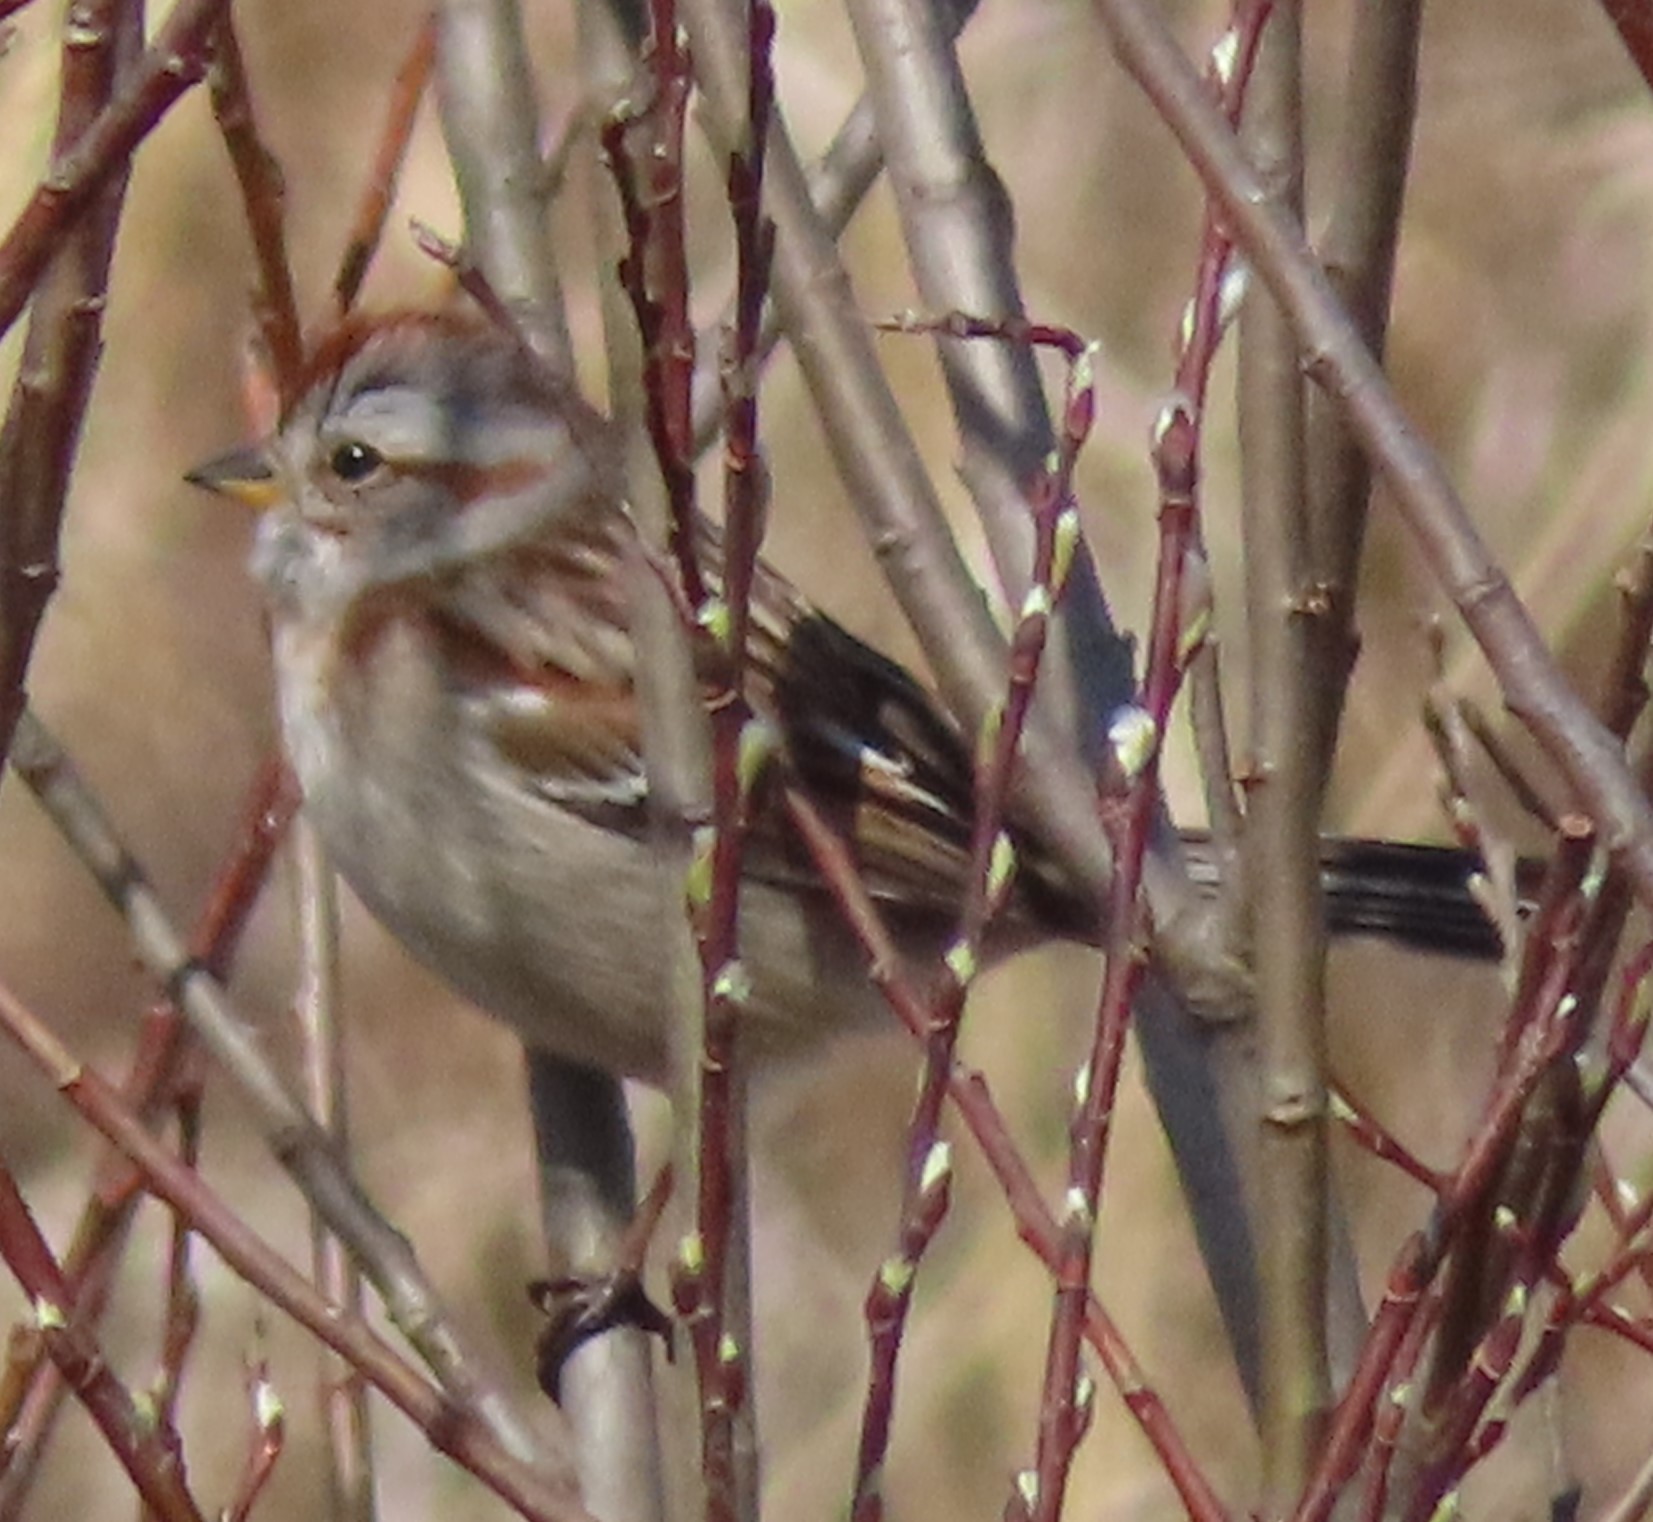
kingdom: Animalia
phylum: Chordata
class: Aves
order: Passeriformes
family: Passerellidae
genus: Spizelloides
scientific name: Spizelloides arborea
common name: American tree sparrow
